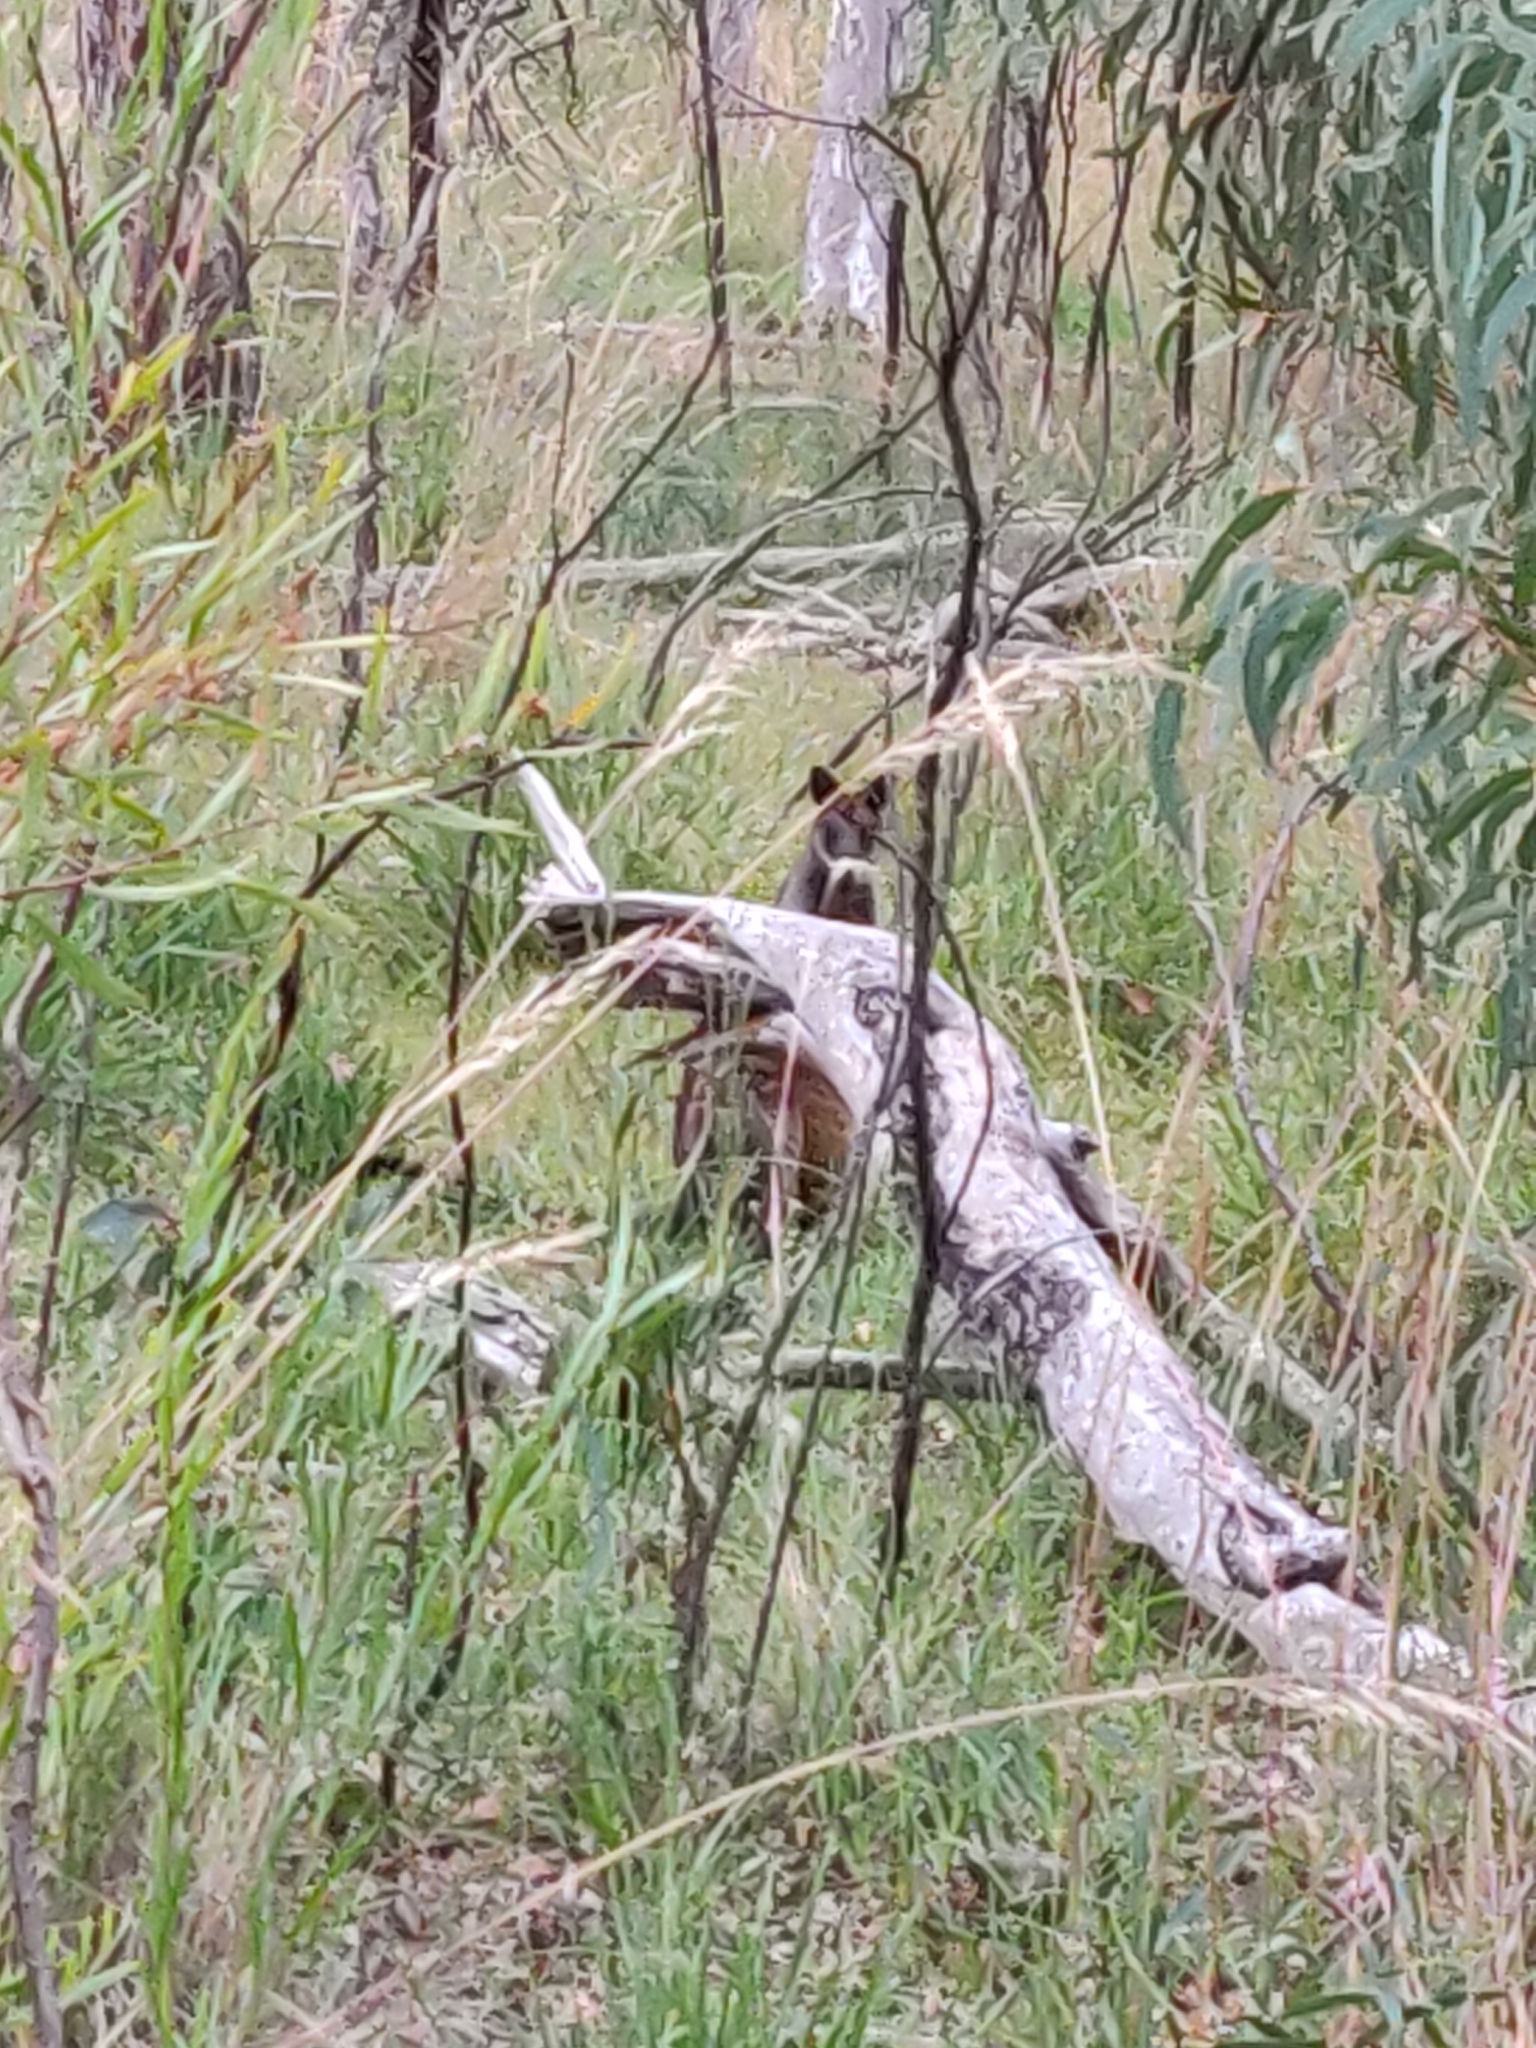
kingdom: Animalia
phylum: Chordata
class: Mammalia
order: Diprotodontia
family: Macropodidae
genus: Wallabia
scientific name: Wallabia bicolor
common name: Swamp wallaby
